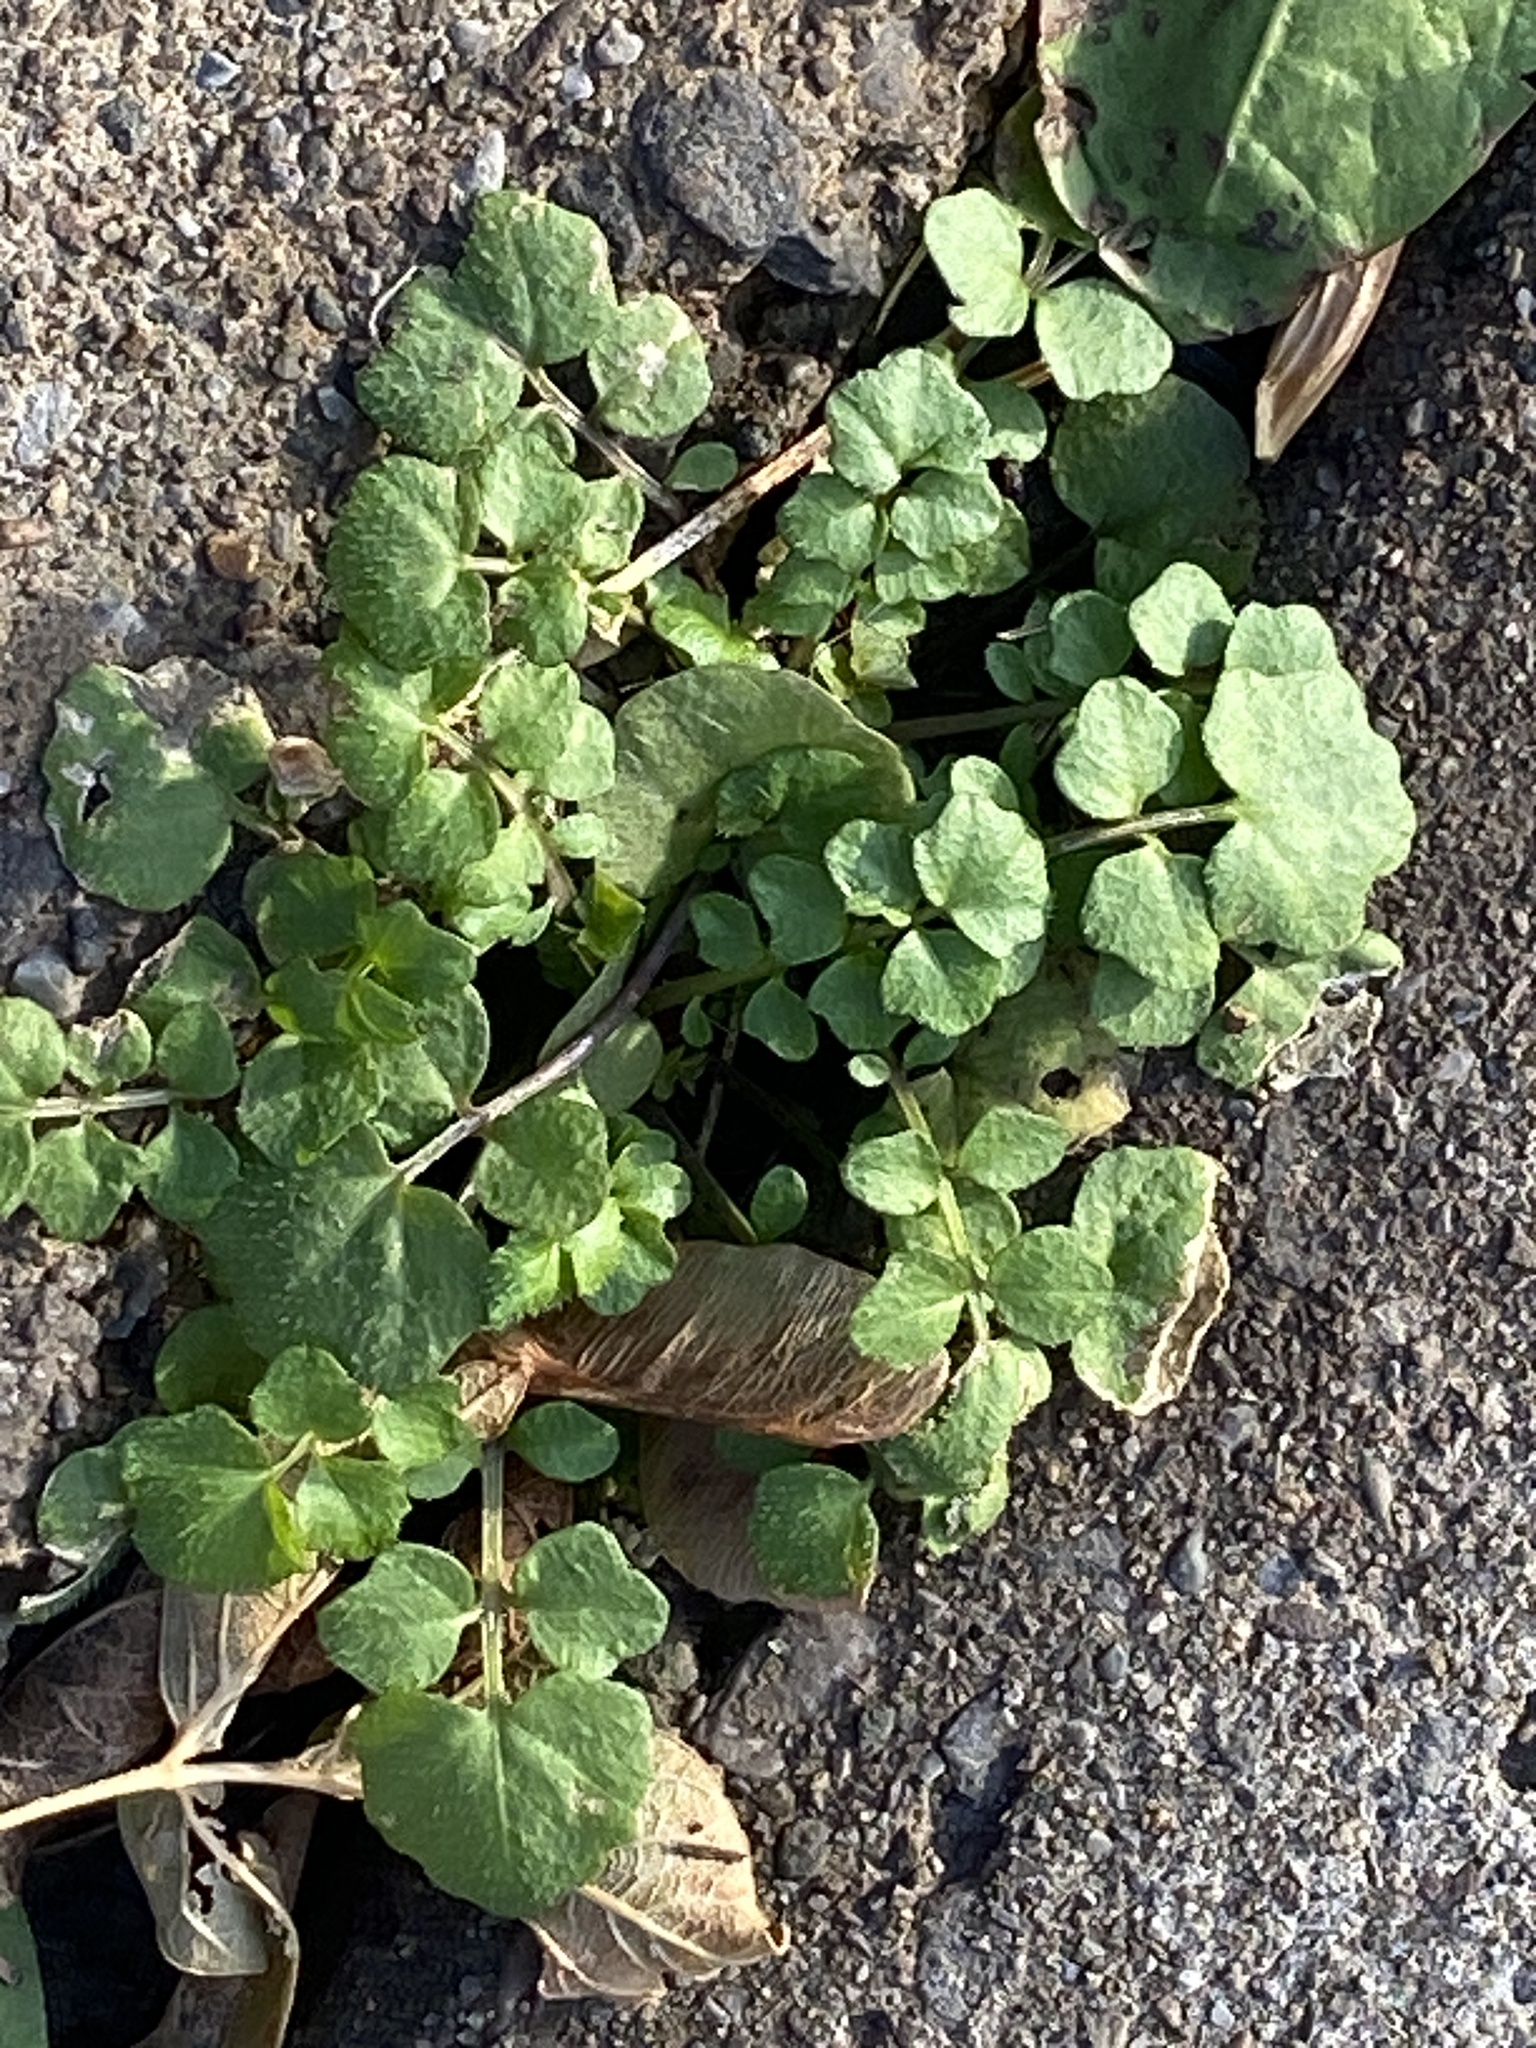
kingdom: Plantae
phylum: Tracheophyta
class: Magnoliopsida
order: Brassicales
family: Brassicaceae
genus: Cardamine
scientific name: Cardamine hirsuta
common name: Hairy bittercress
